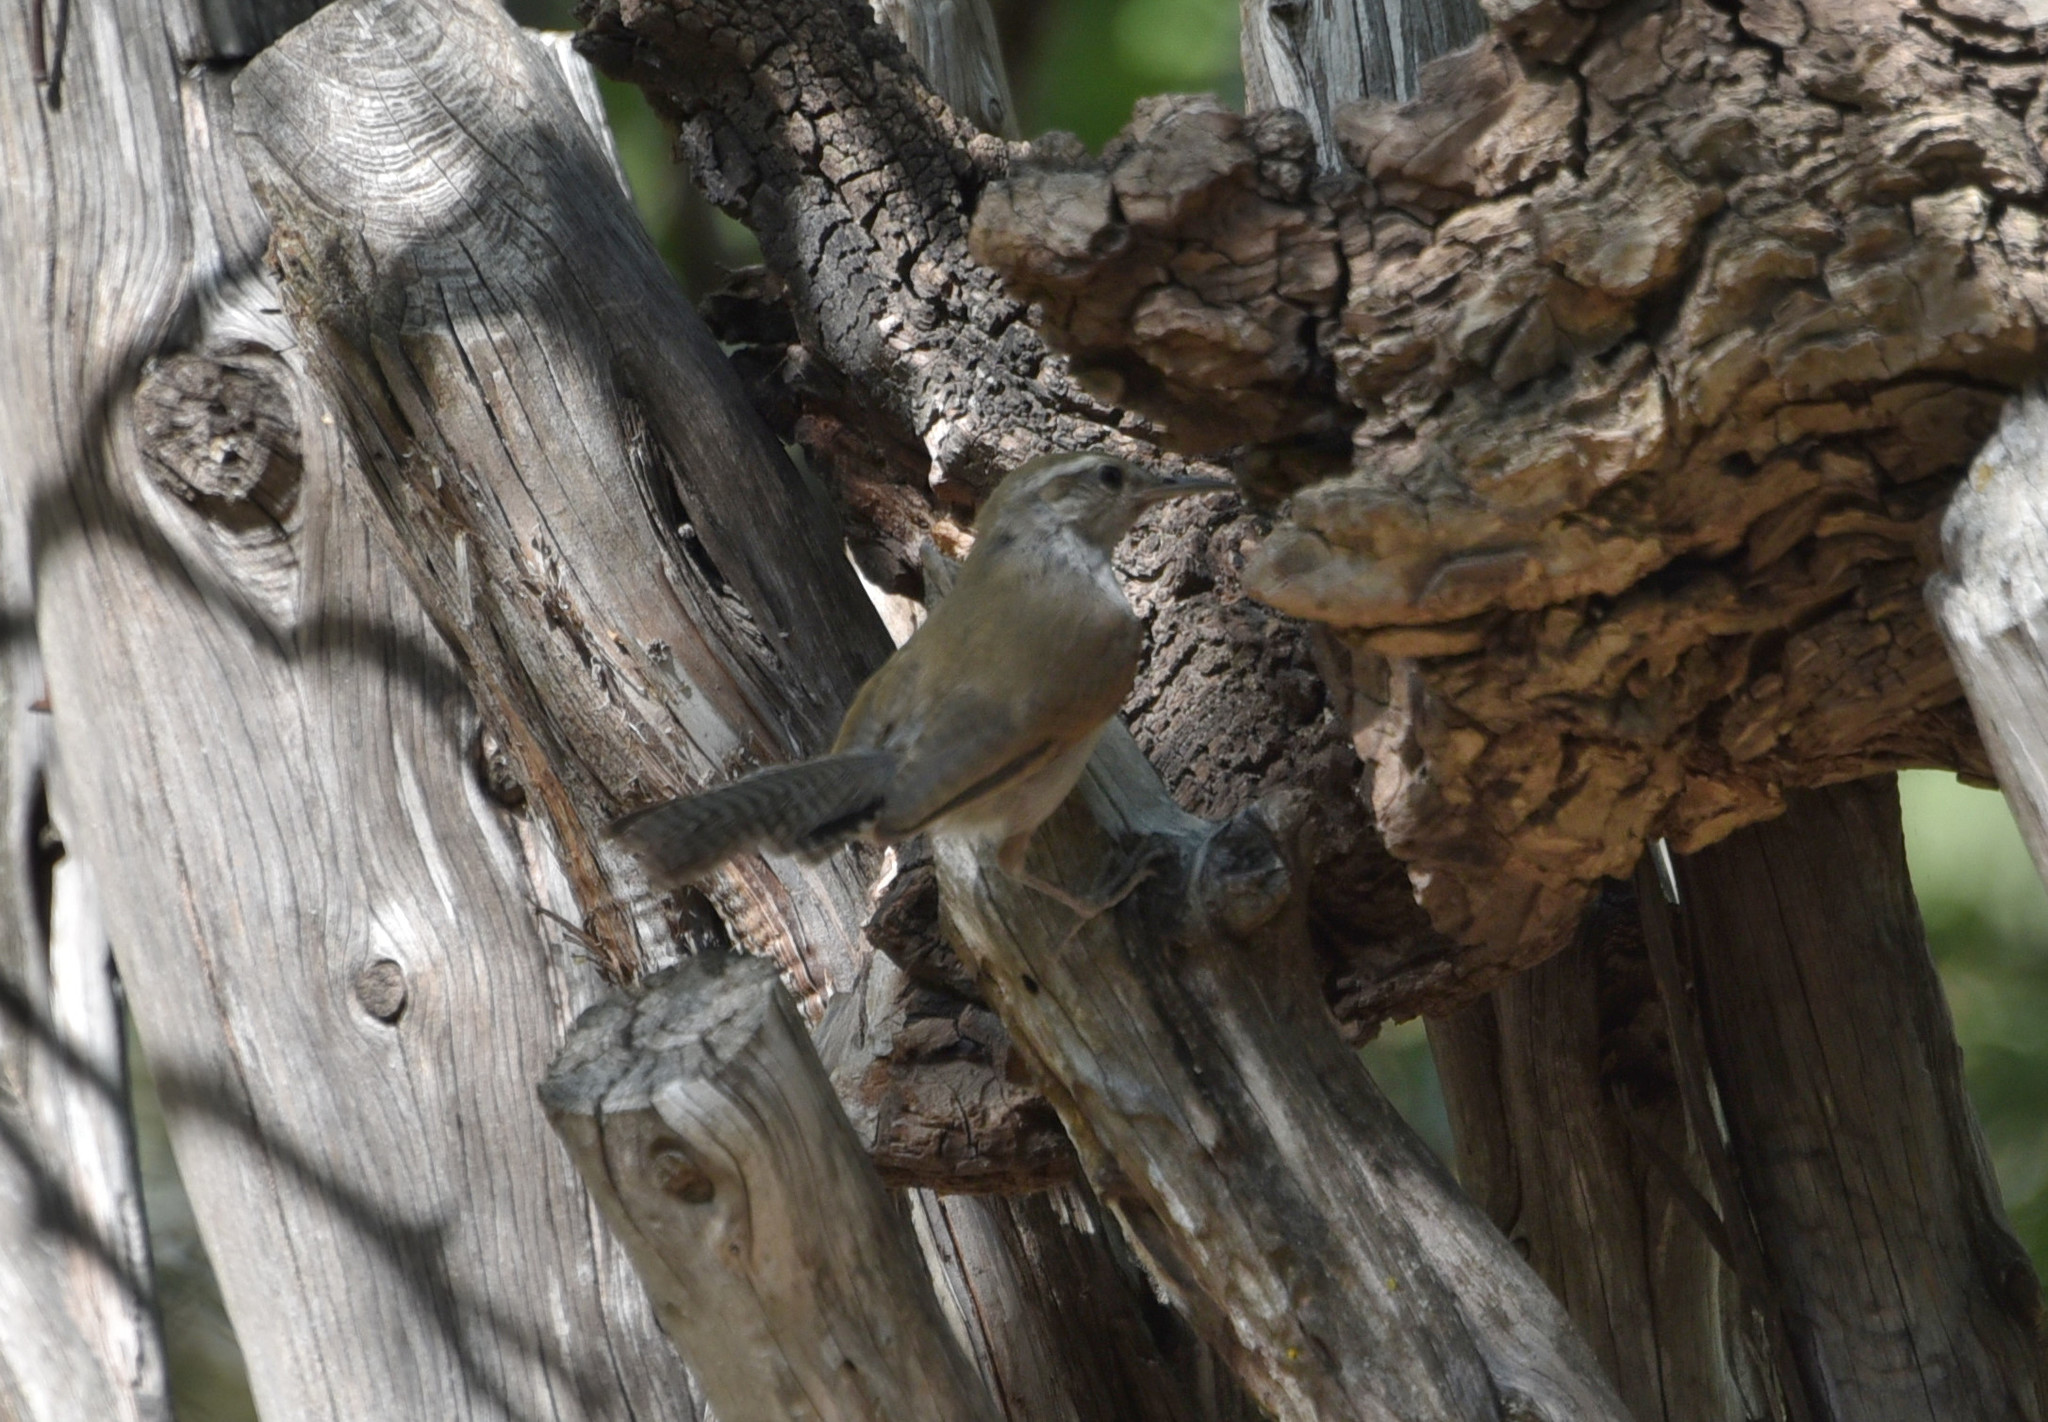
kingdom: Animalia
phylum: Chordata
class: Aves
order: Passeriformes
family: Troglodytidae
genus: Thryomanes
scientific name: Thryomanes bewickii
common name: Bewick's wren
